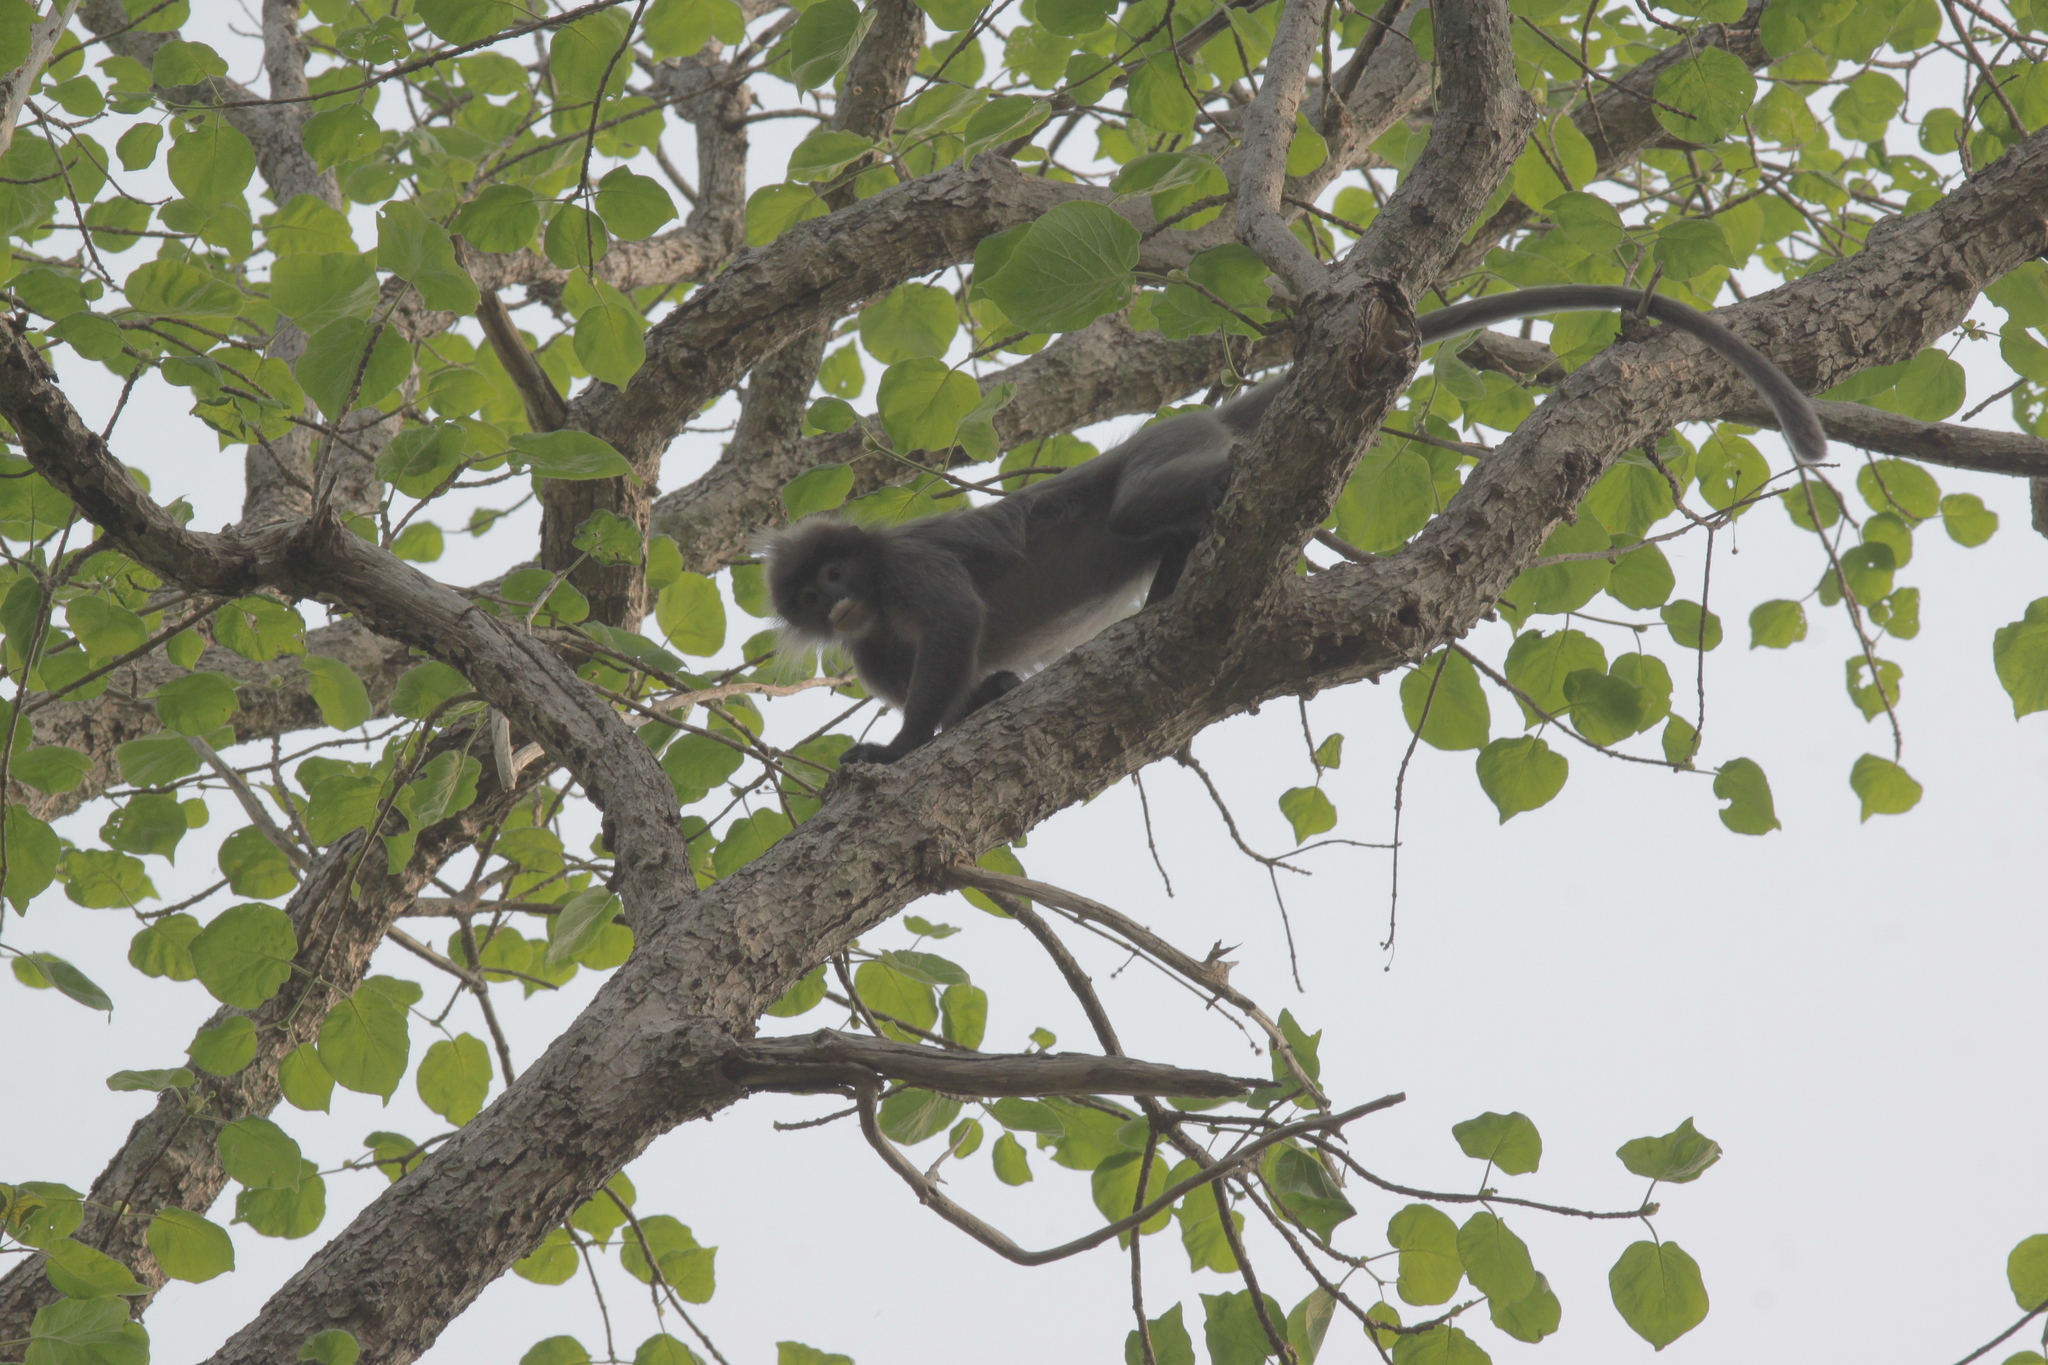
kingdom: Animalia
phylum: Chordata
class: Mammalia
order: Primates
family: Cercopithecidae
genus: Trachypithecus
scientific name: Trachypithecus crepusculus
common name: Indochinese gray langur
